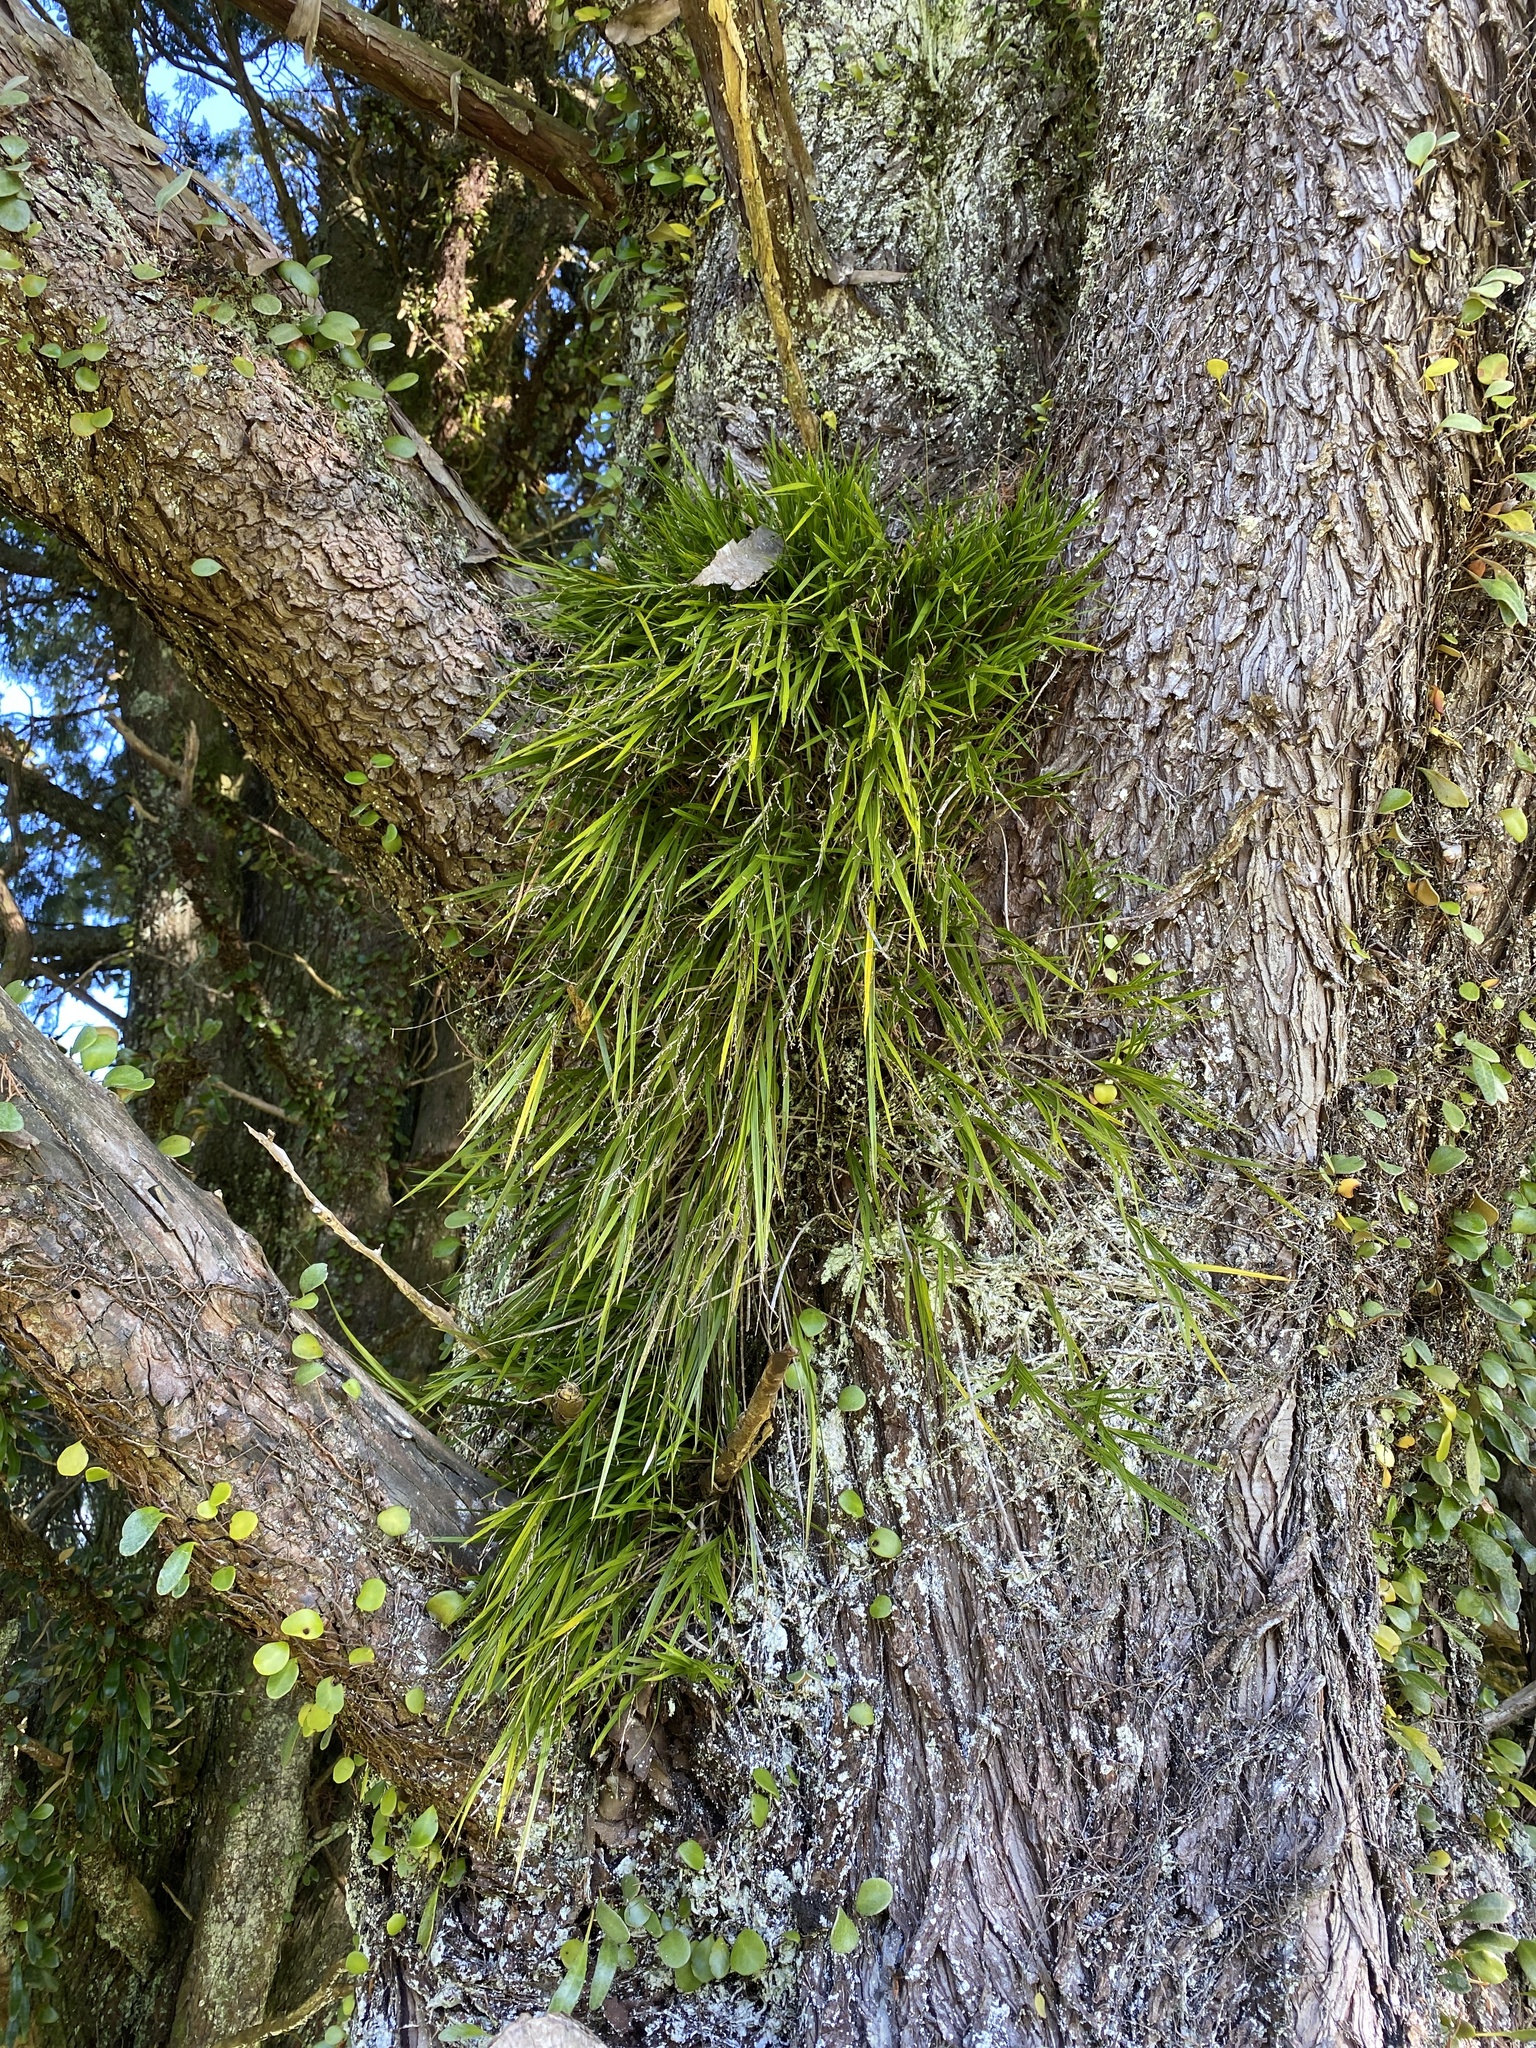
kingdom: Plantae
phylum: Tracheophyta
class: Liliopsida
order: Asparagales
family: Orchidaceae
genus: Earina
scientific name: Earina mucronata
